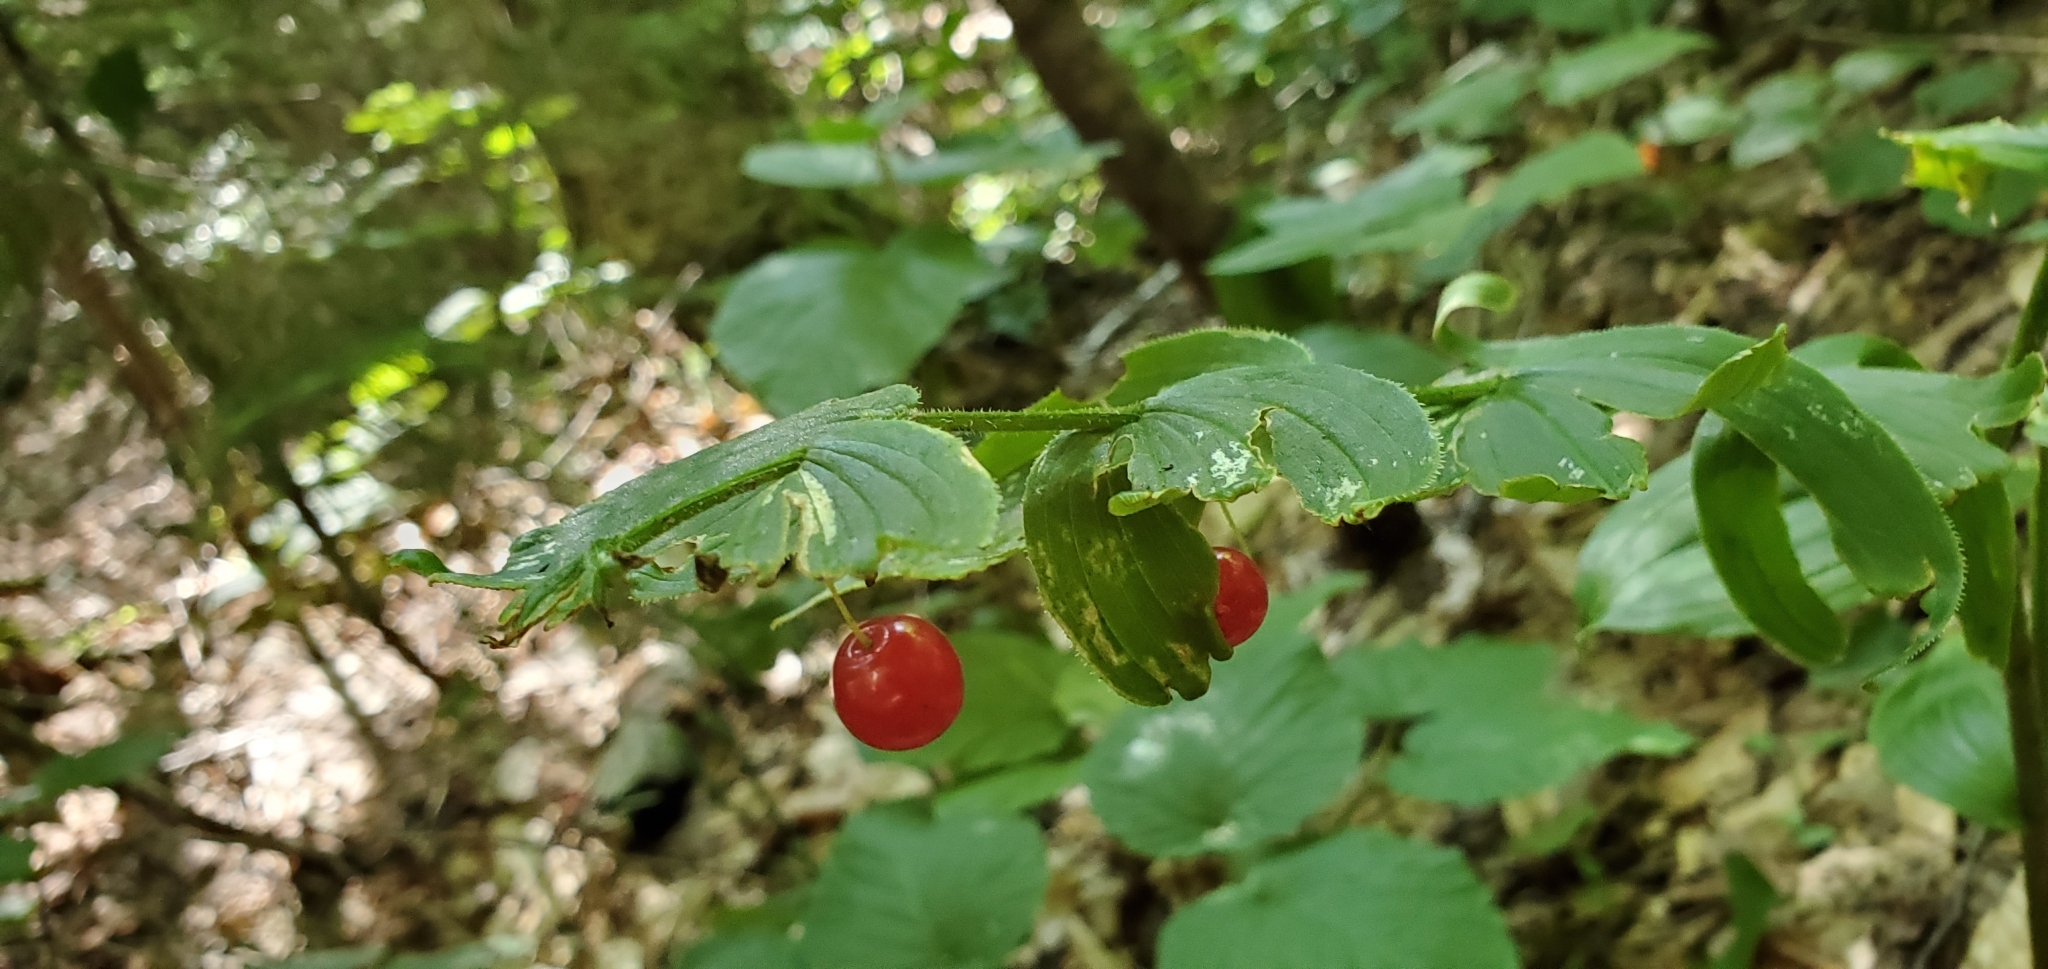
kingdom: Plantae
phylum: Tracheophyta
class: Liliopsida
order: Liliales
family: Liliaceae
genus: Streptopus
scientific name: Streptopus lanceolatus
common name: Rose mandarin
